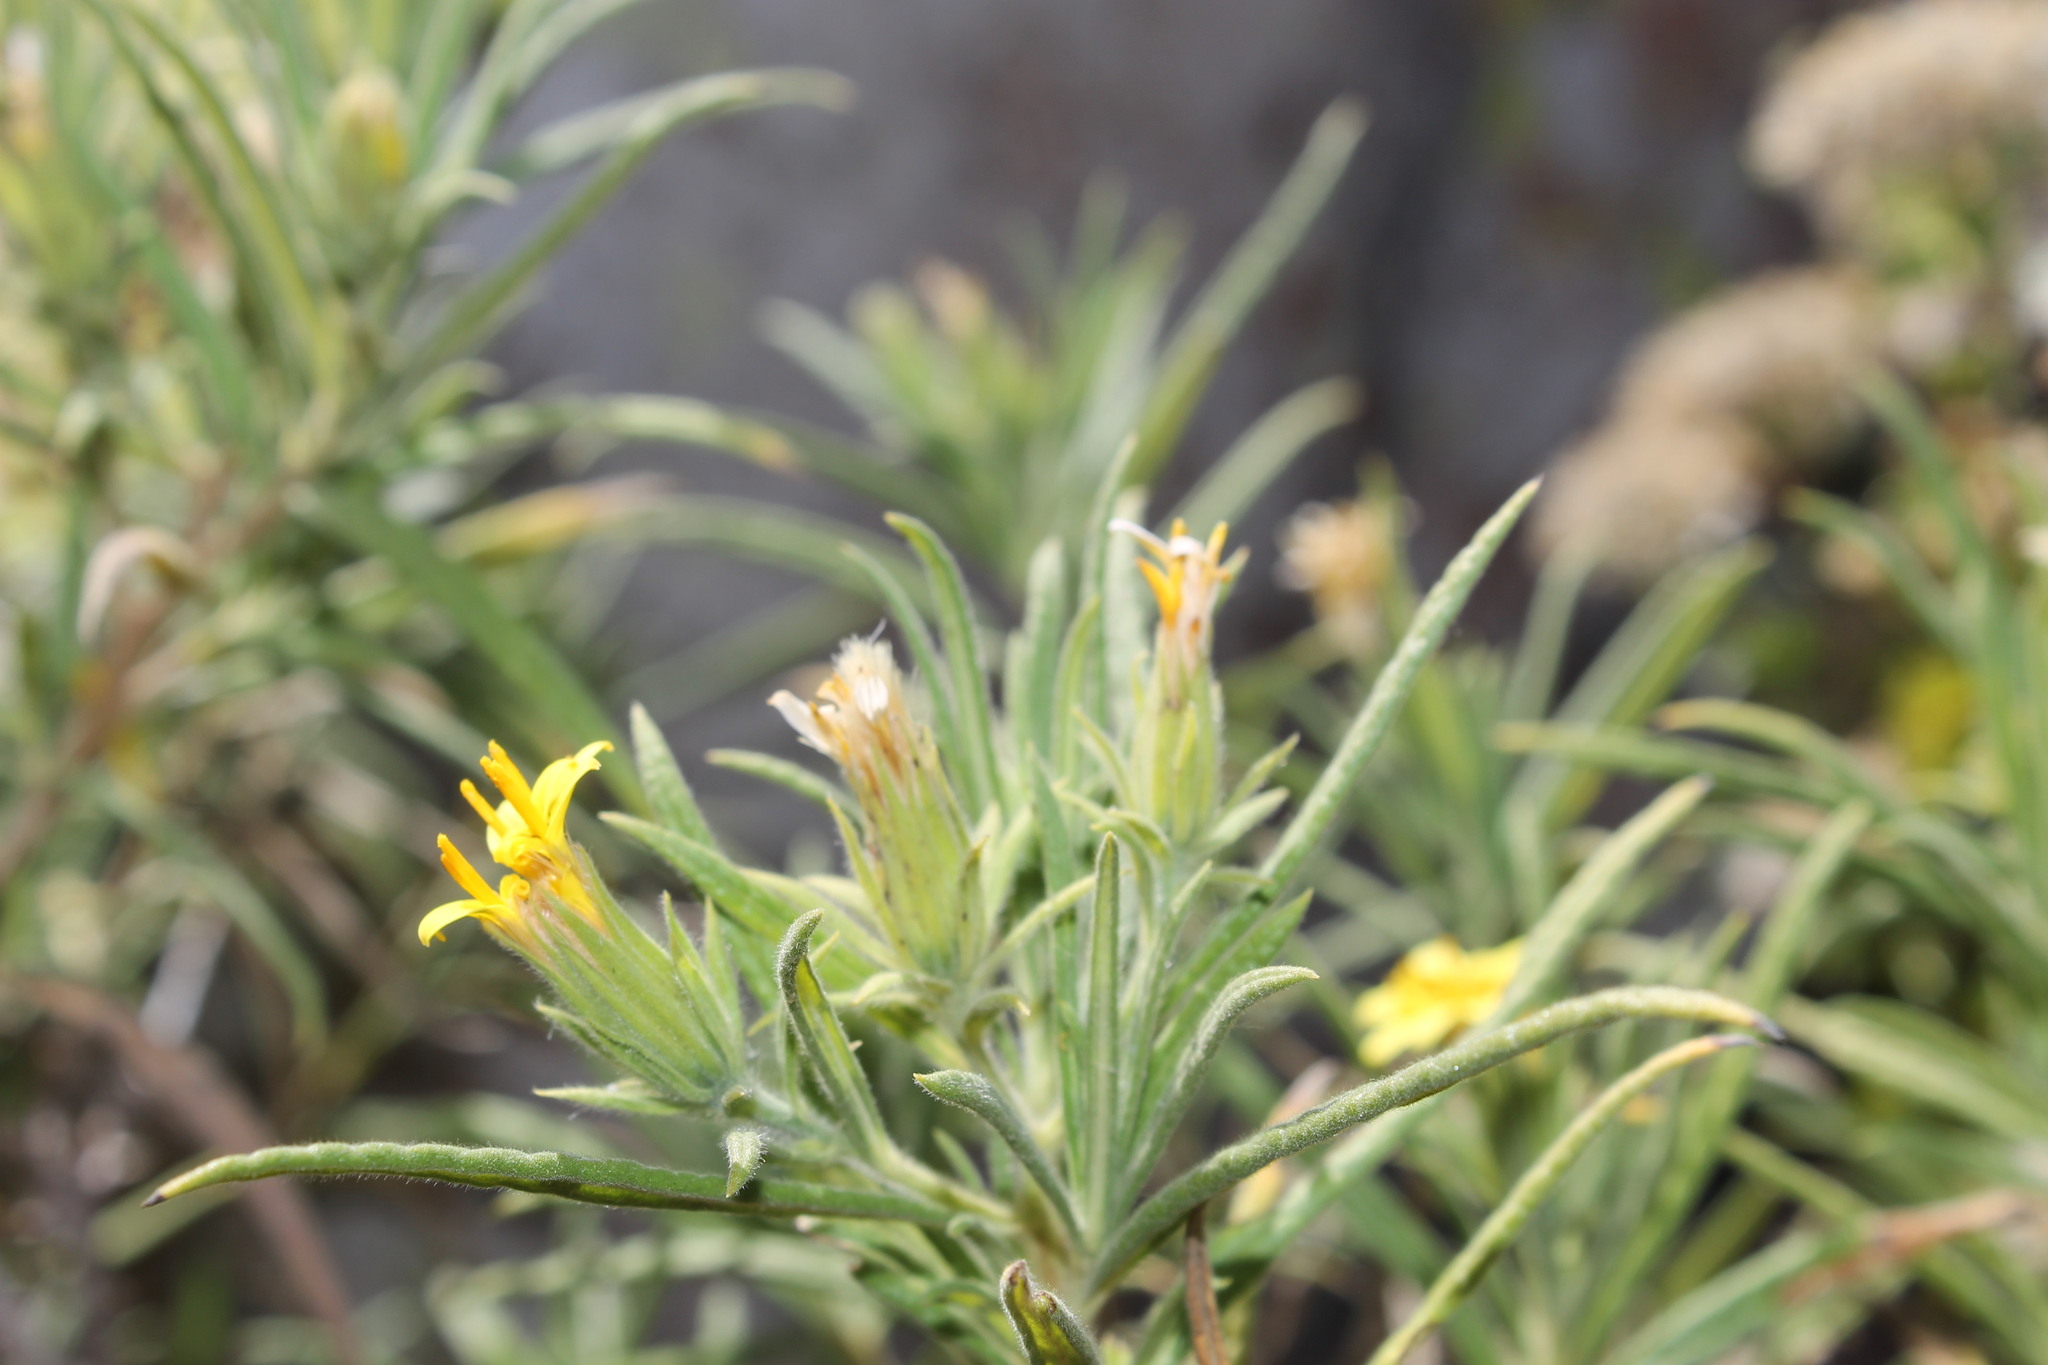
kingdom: Plantae
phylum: Tracheophyta
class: Magnoliopsida
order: Asterales
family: Asteraceae
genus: Trixis
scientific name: Trixis angustifolia
